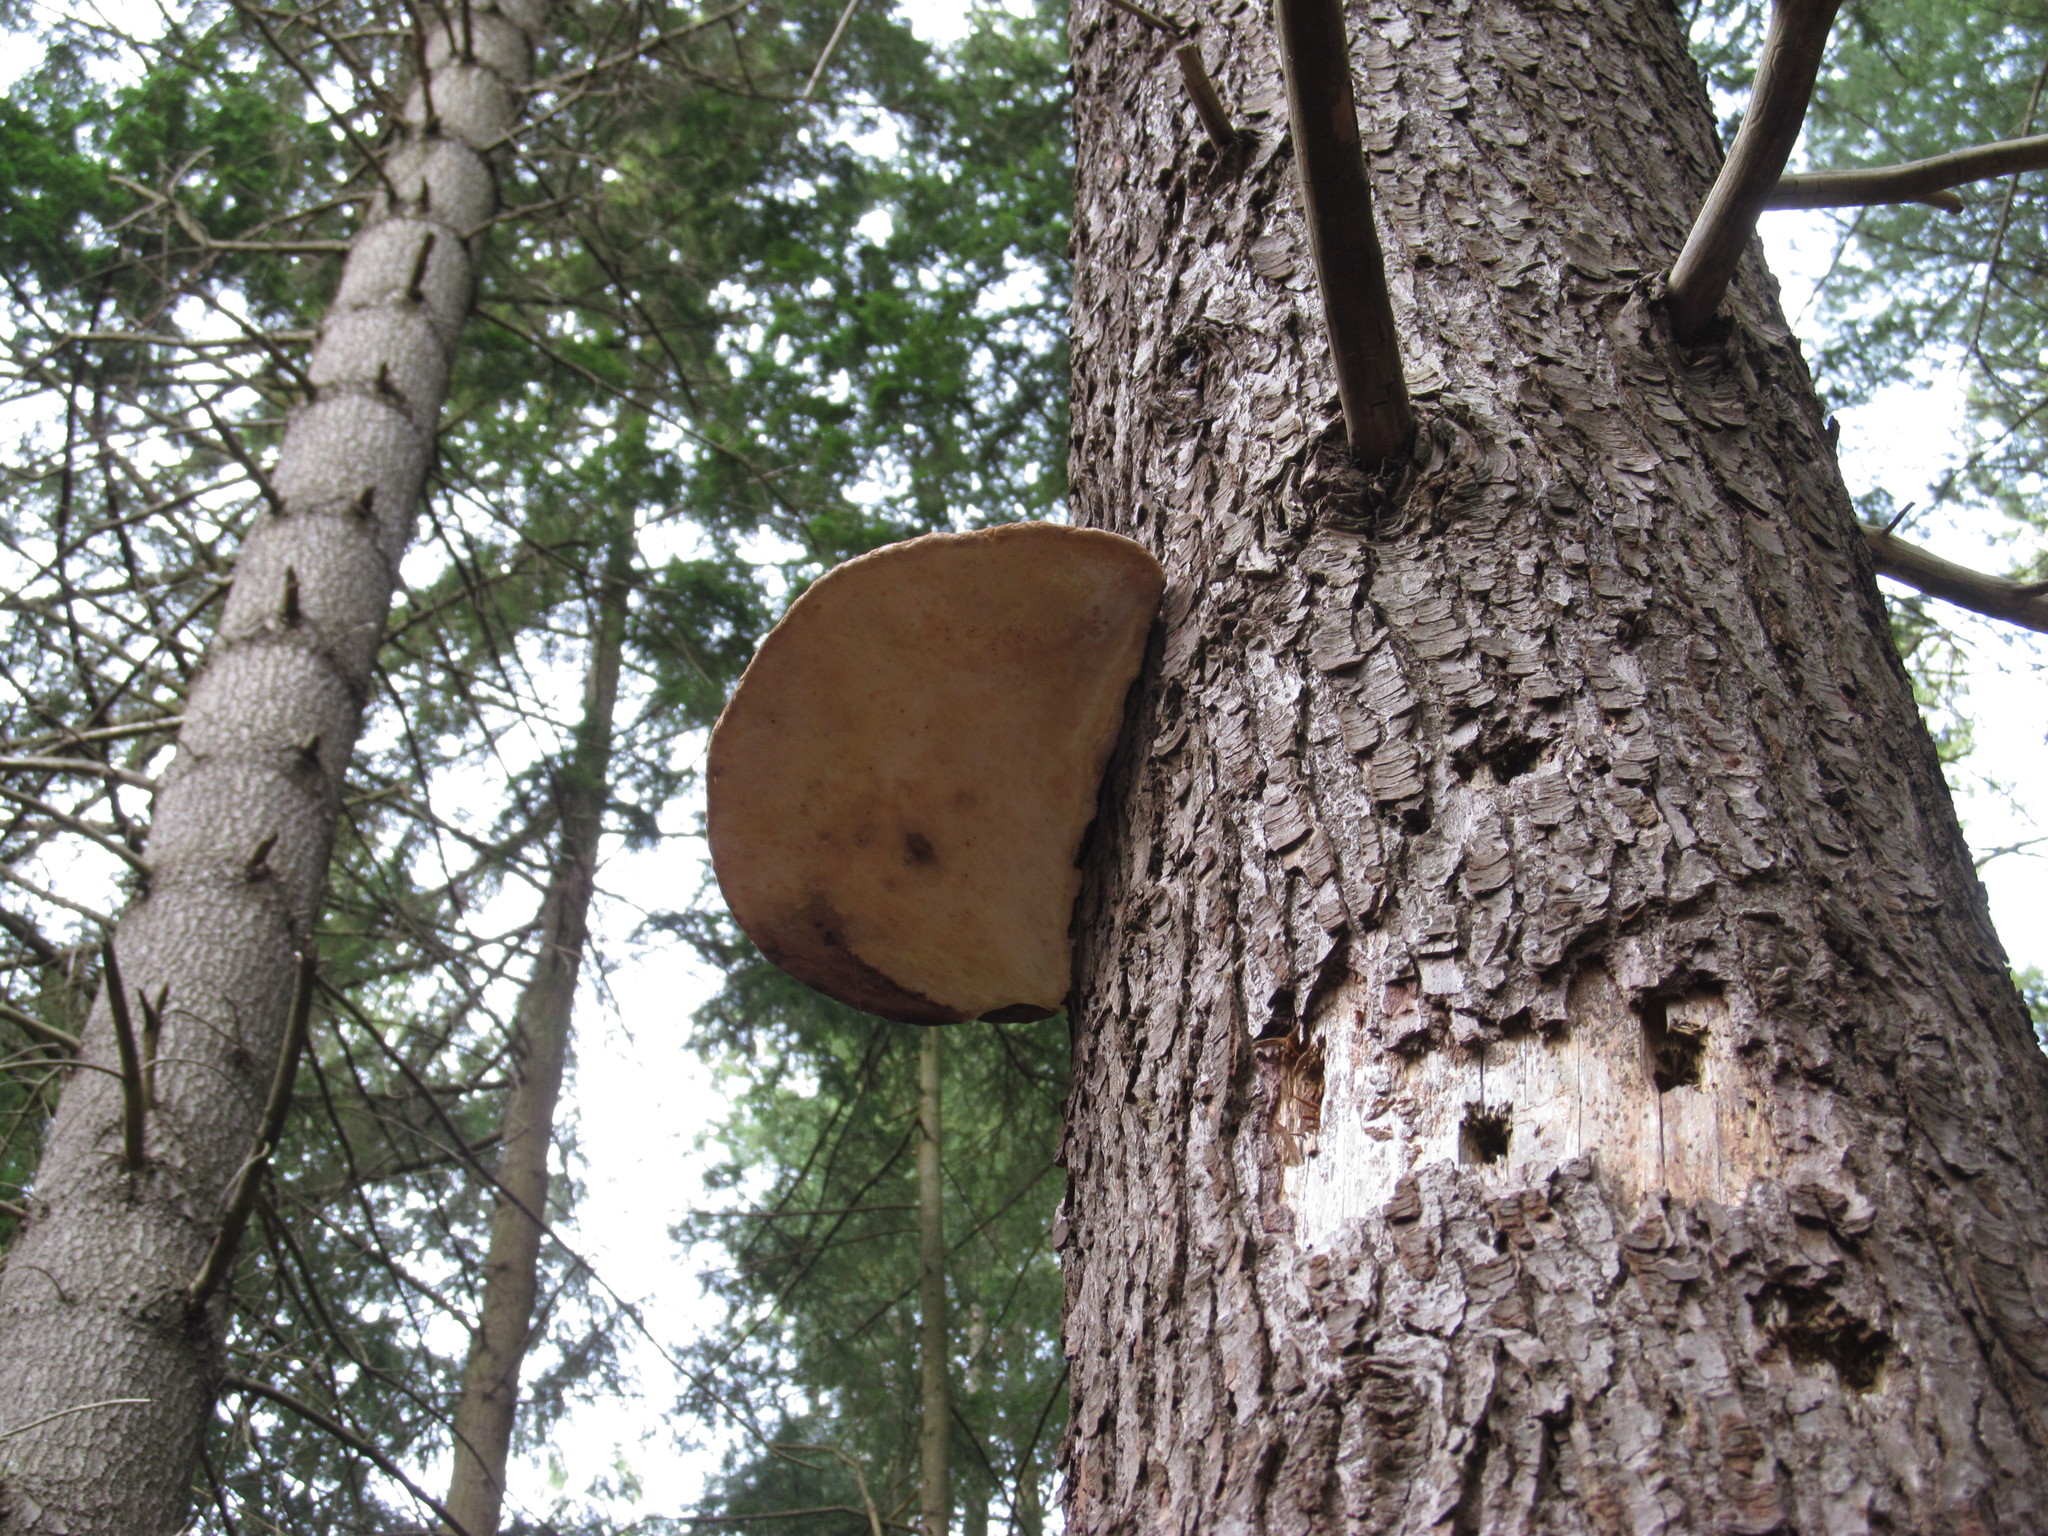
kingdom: Fungi
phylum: Basidiomycota
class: Agaricomycetes
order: Polyporales
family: Fomitopsidaceae
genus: Fomitopsis
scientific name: Fomitopsis mounceae
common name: Northern red belt
